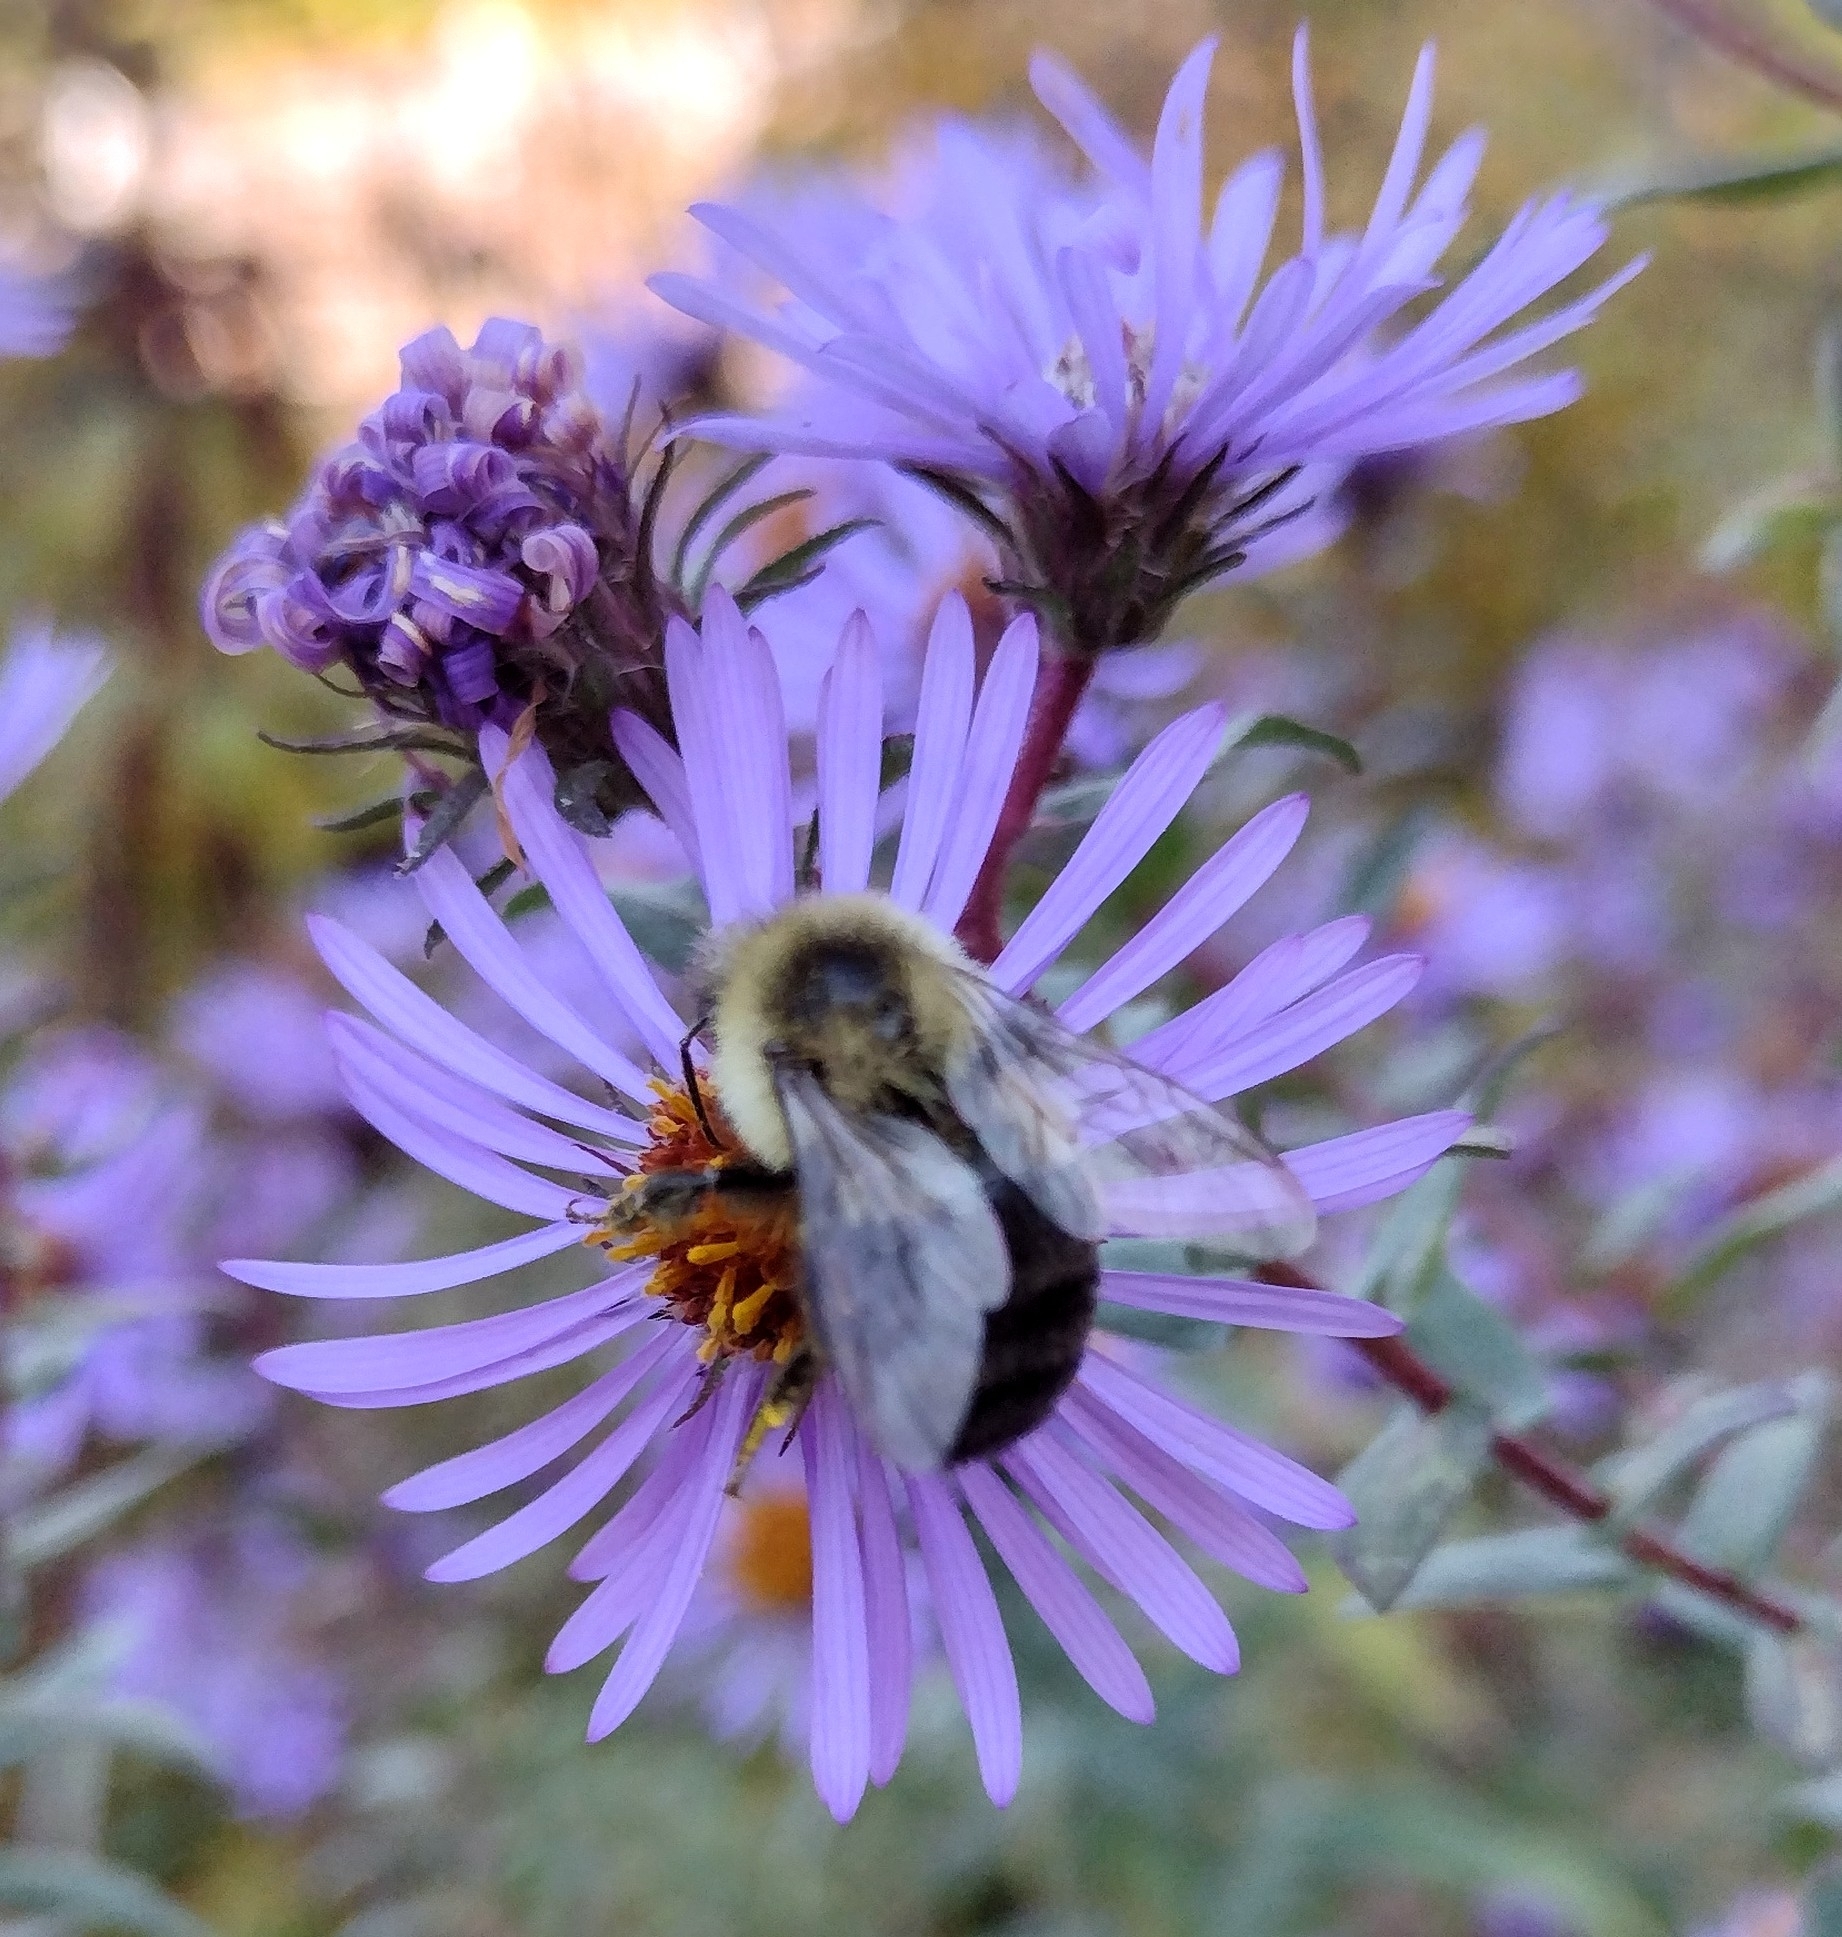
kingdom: Animalia
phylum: Arthropoda
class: Insecta
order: Hymenoptera
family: Apidae
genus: Bombus
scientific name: Bombus impatiens
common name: Common eastern bumble bee
